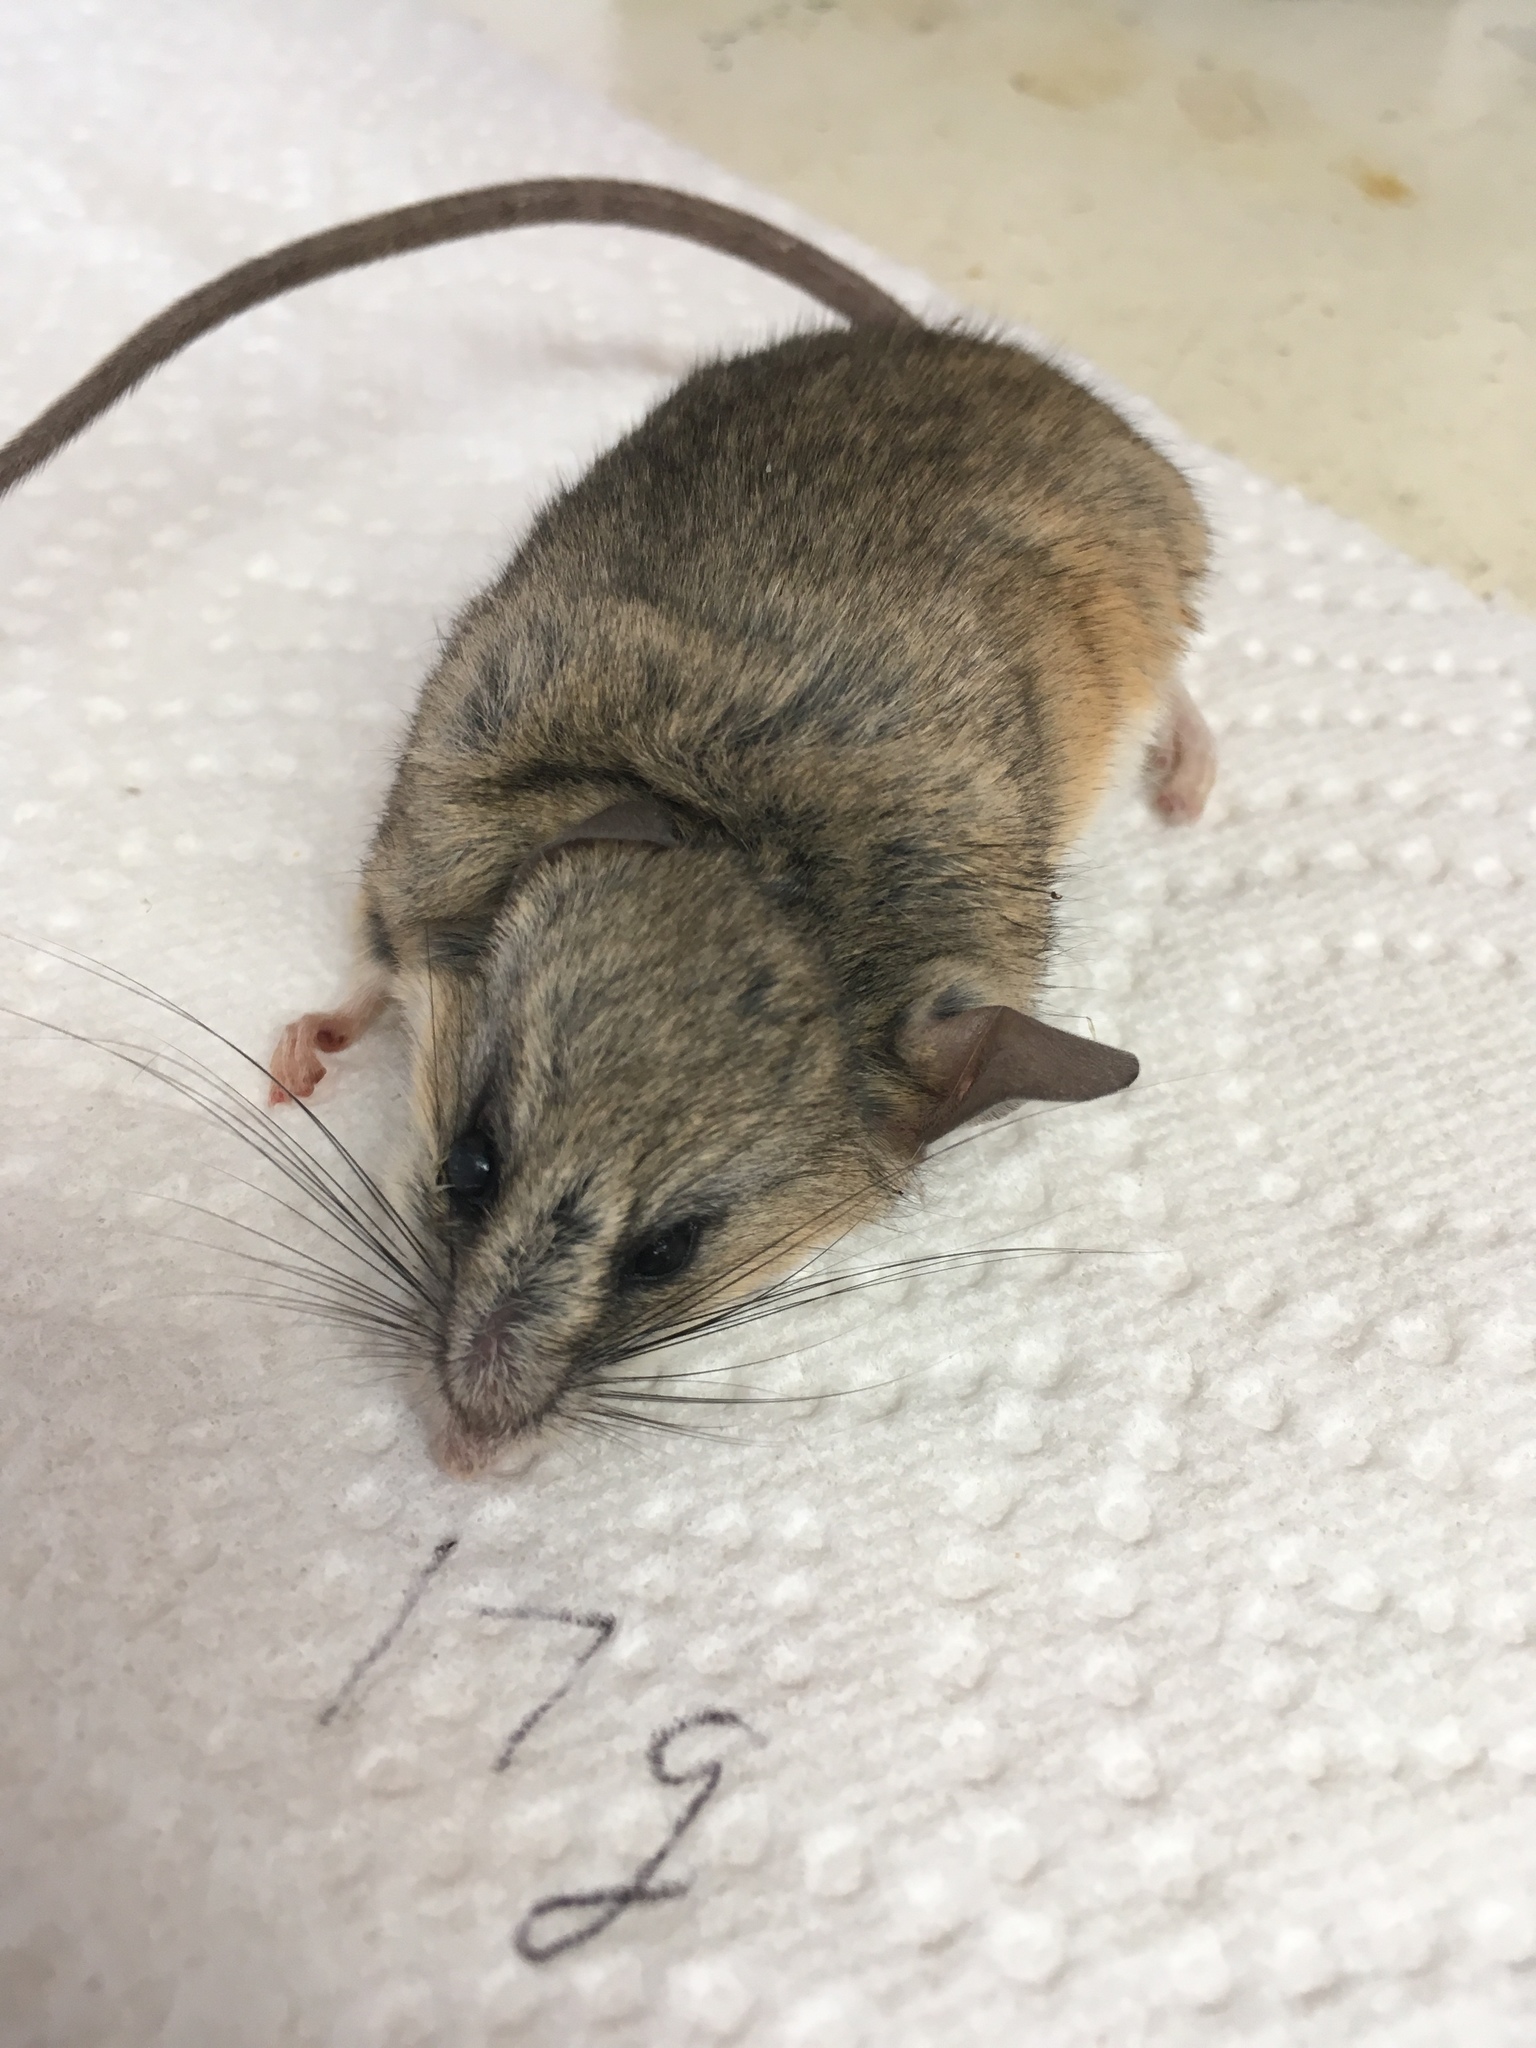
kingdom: Animalia
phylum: Chordata
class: Mammalia
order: Rodentia
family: Cricetidae
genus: Peromyscus
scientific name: Peromyscus eremicus
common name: Cactus deermouse
